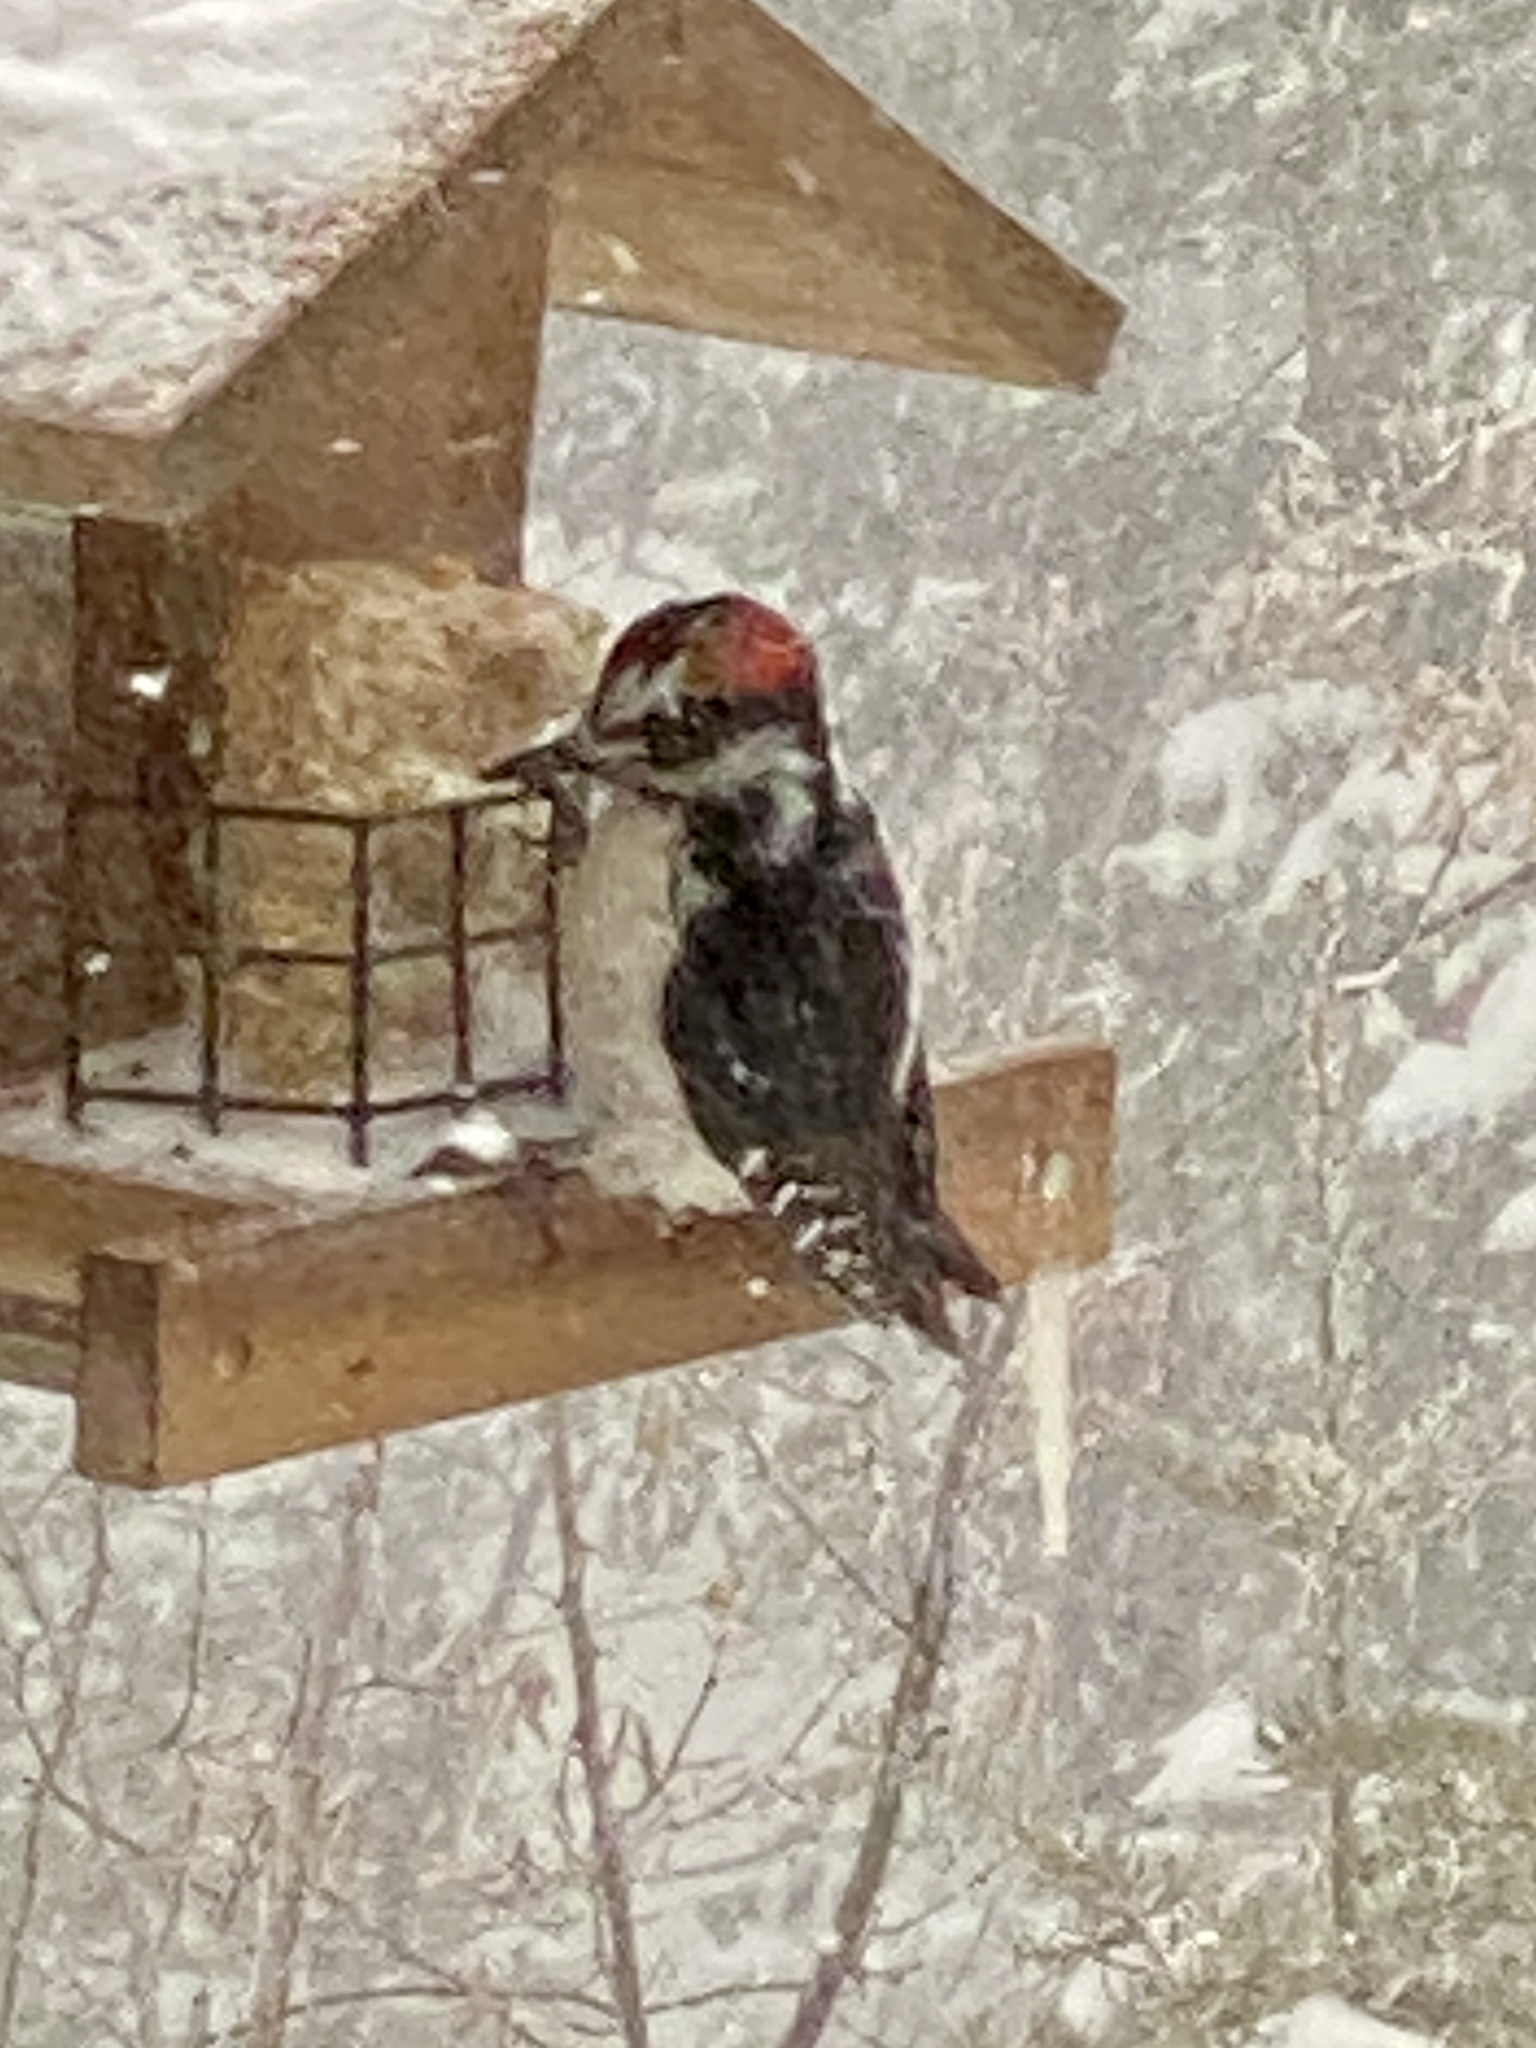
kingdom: Animalia
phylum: Chordata
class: Aves
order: Piciformes
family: Picidae
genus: Leuconotopicus
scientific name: Leuconotopicus villosus
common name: Hairy woodpecker
